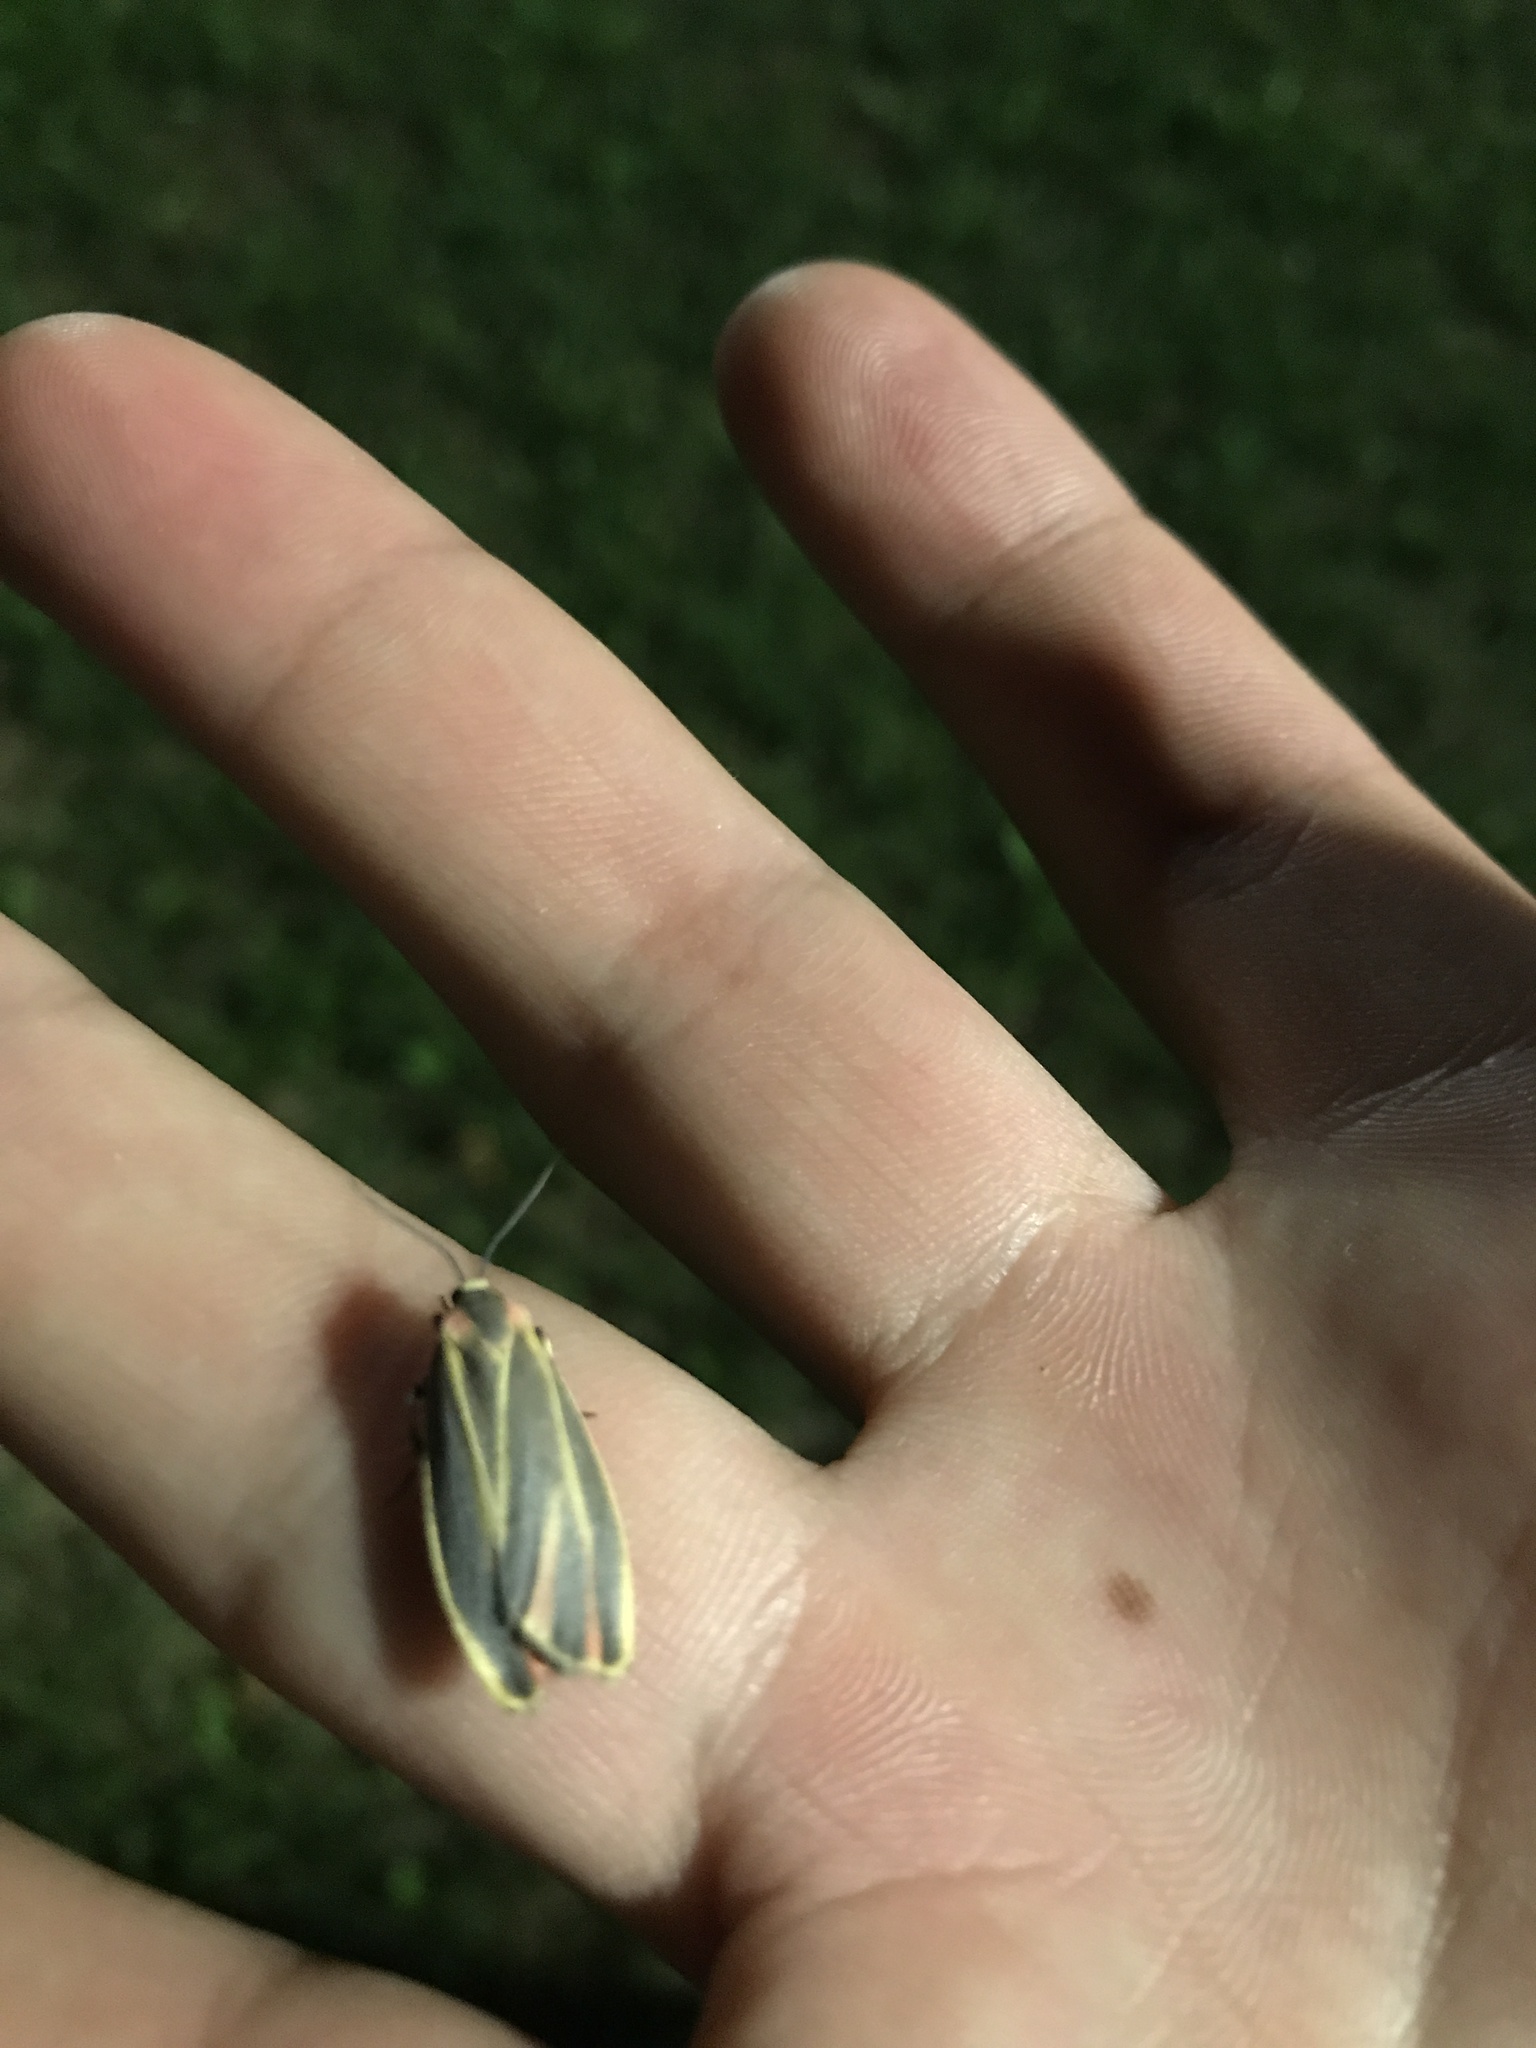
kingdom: Animalia
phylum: Arthropoda
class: Insecta
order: Lepidoptera
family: Erebidae
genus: Hypoprepia
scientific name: Hypoprepia fucosa
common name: Painted lichen moth
